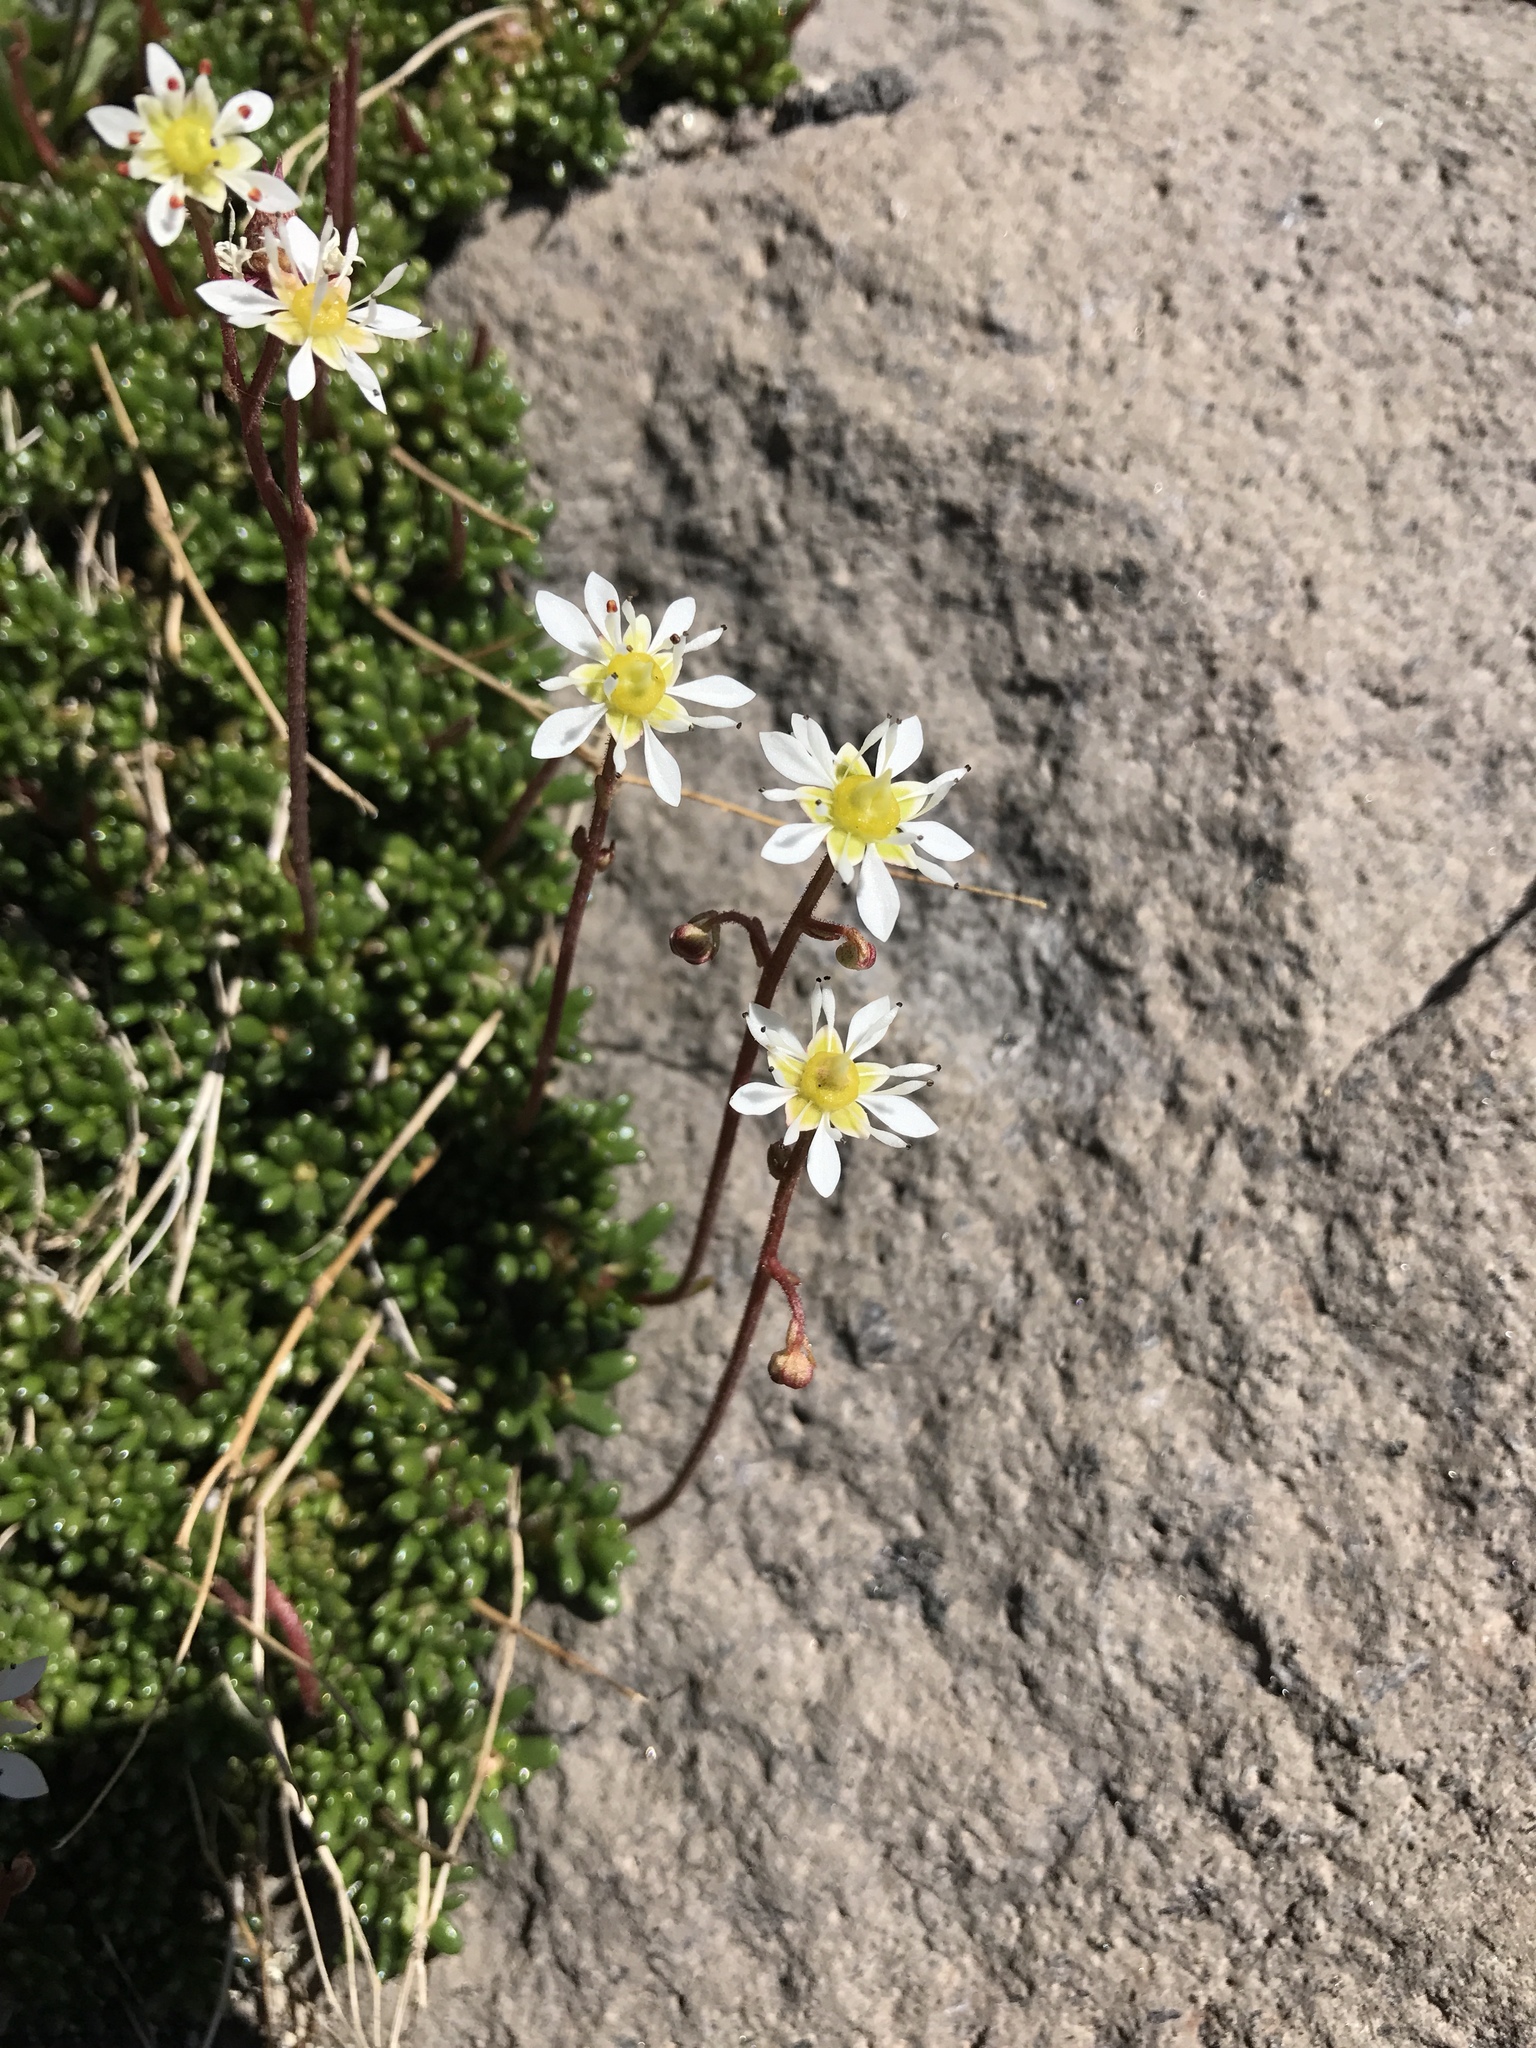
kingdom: Plantae
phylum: Tracheophyta
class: Magnoliopsida
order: Saxifragales
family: Saxifragaceae
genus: Micranthes
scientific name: Micranthes tolmiei
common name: Tolmie's saxifrage
